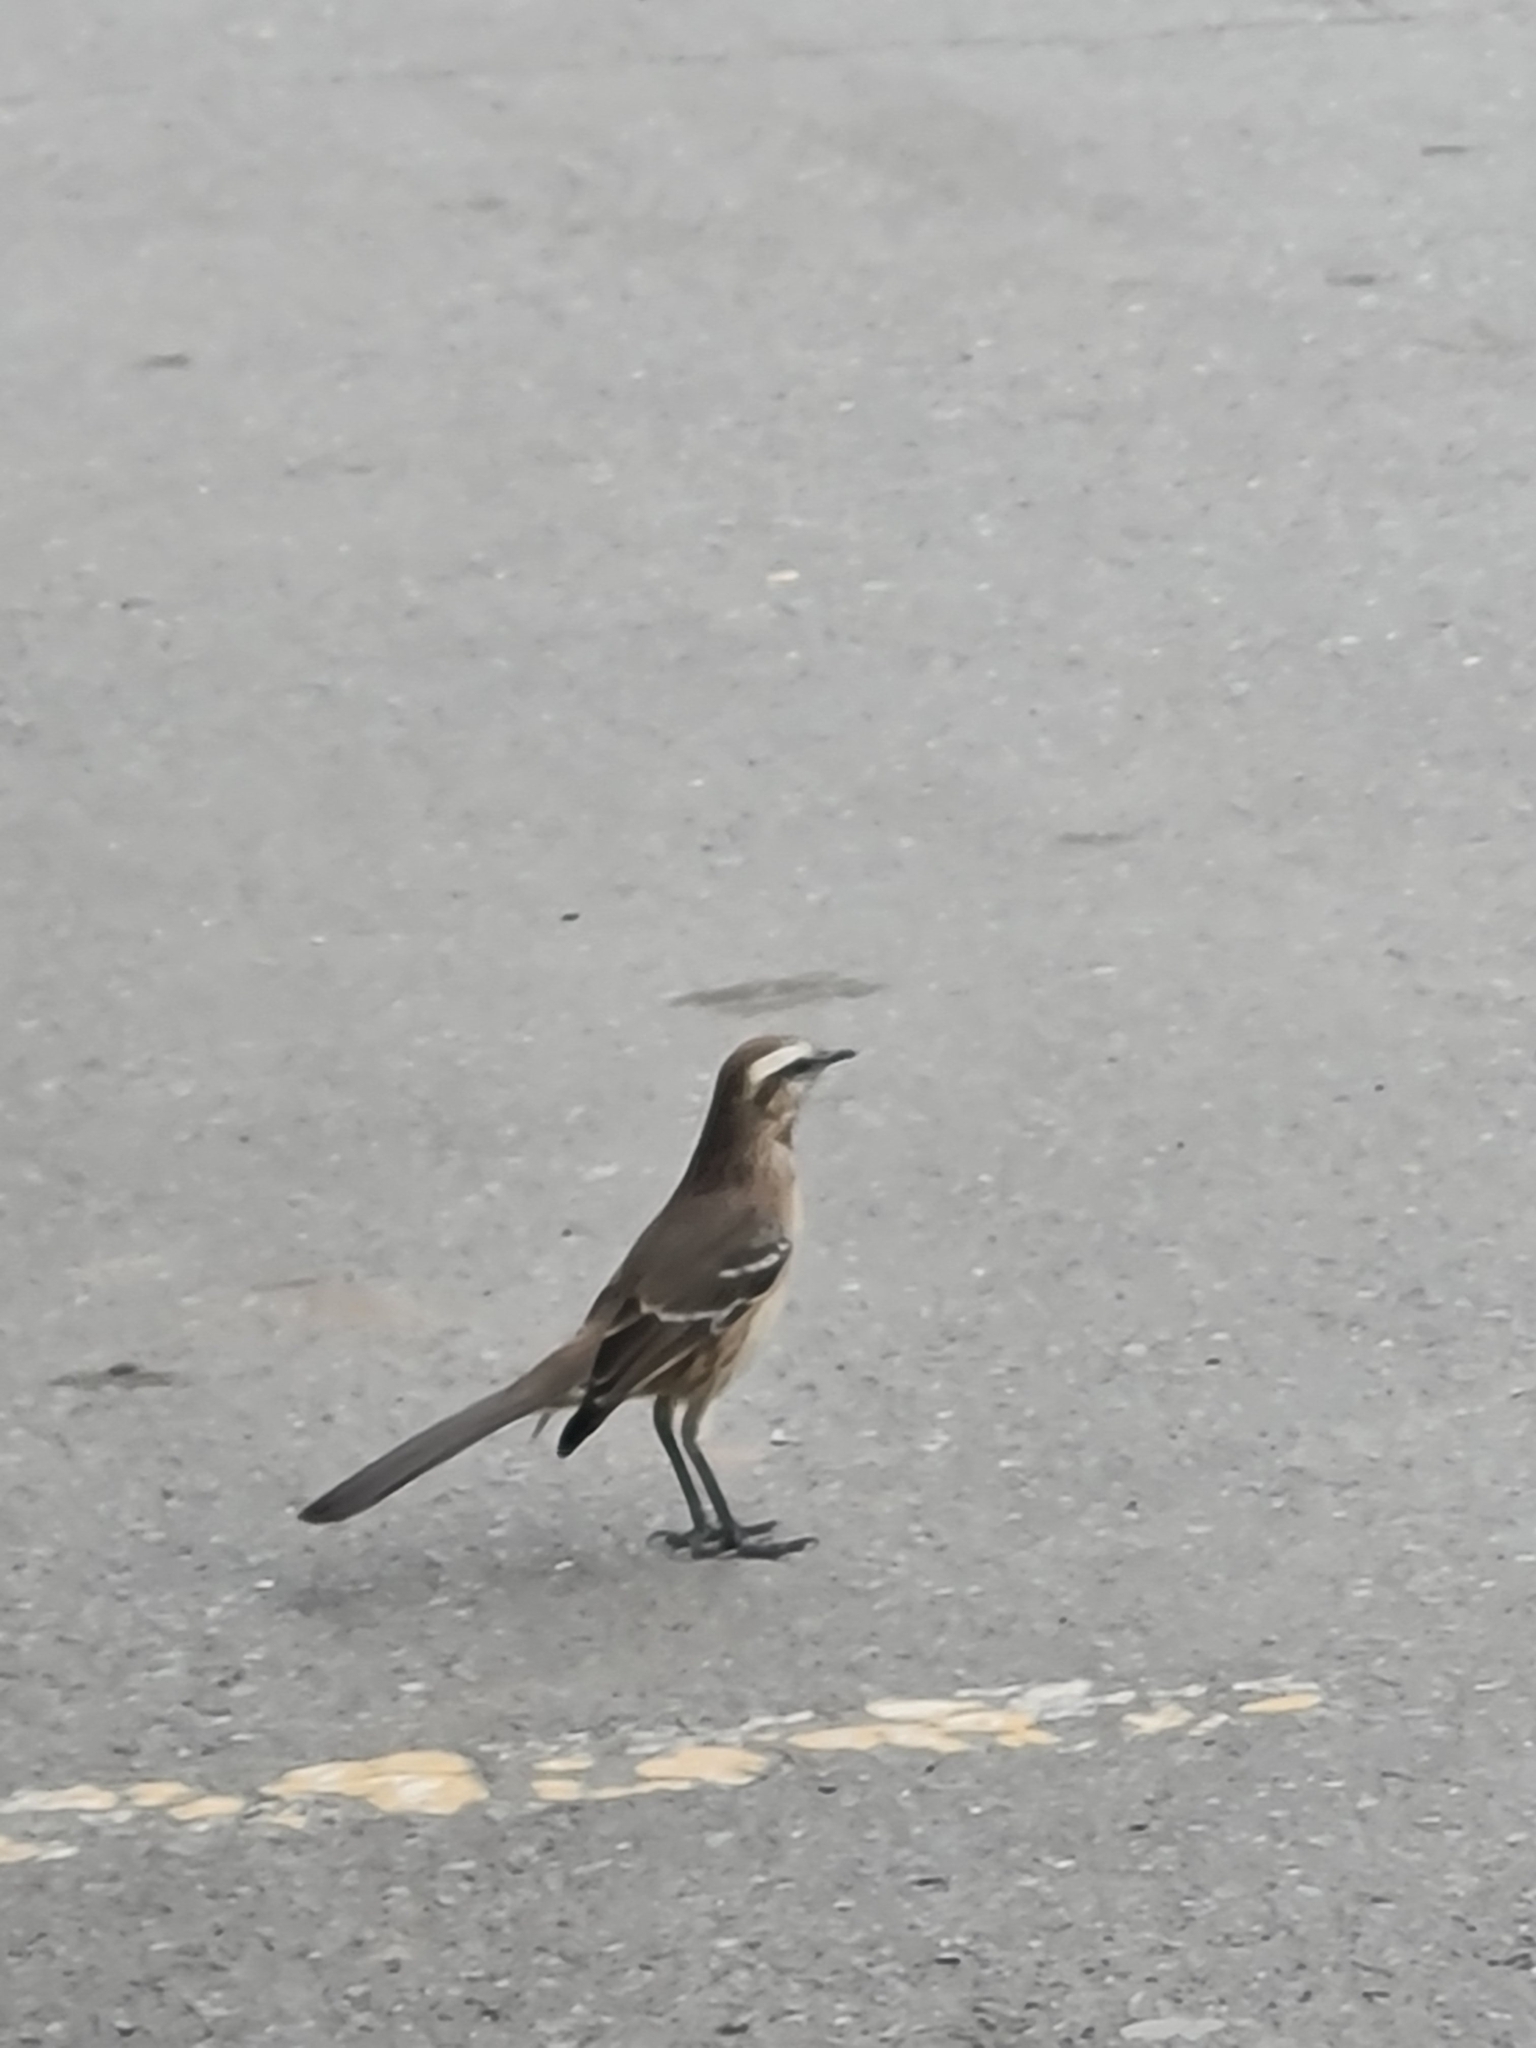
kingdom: Animalia
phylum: Chordata
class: Aves
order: Passeriformes
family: Mimidae
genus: Mimus
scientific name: Mimus thenca
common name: Chilean mockingbird
